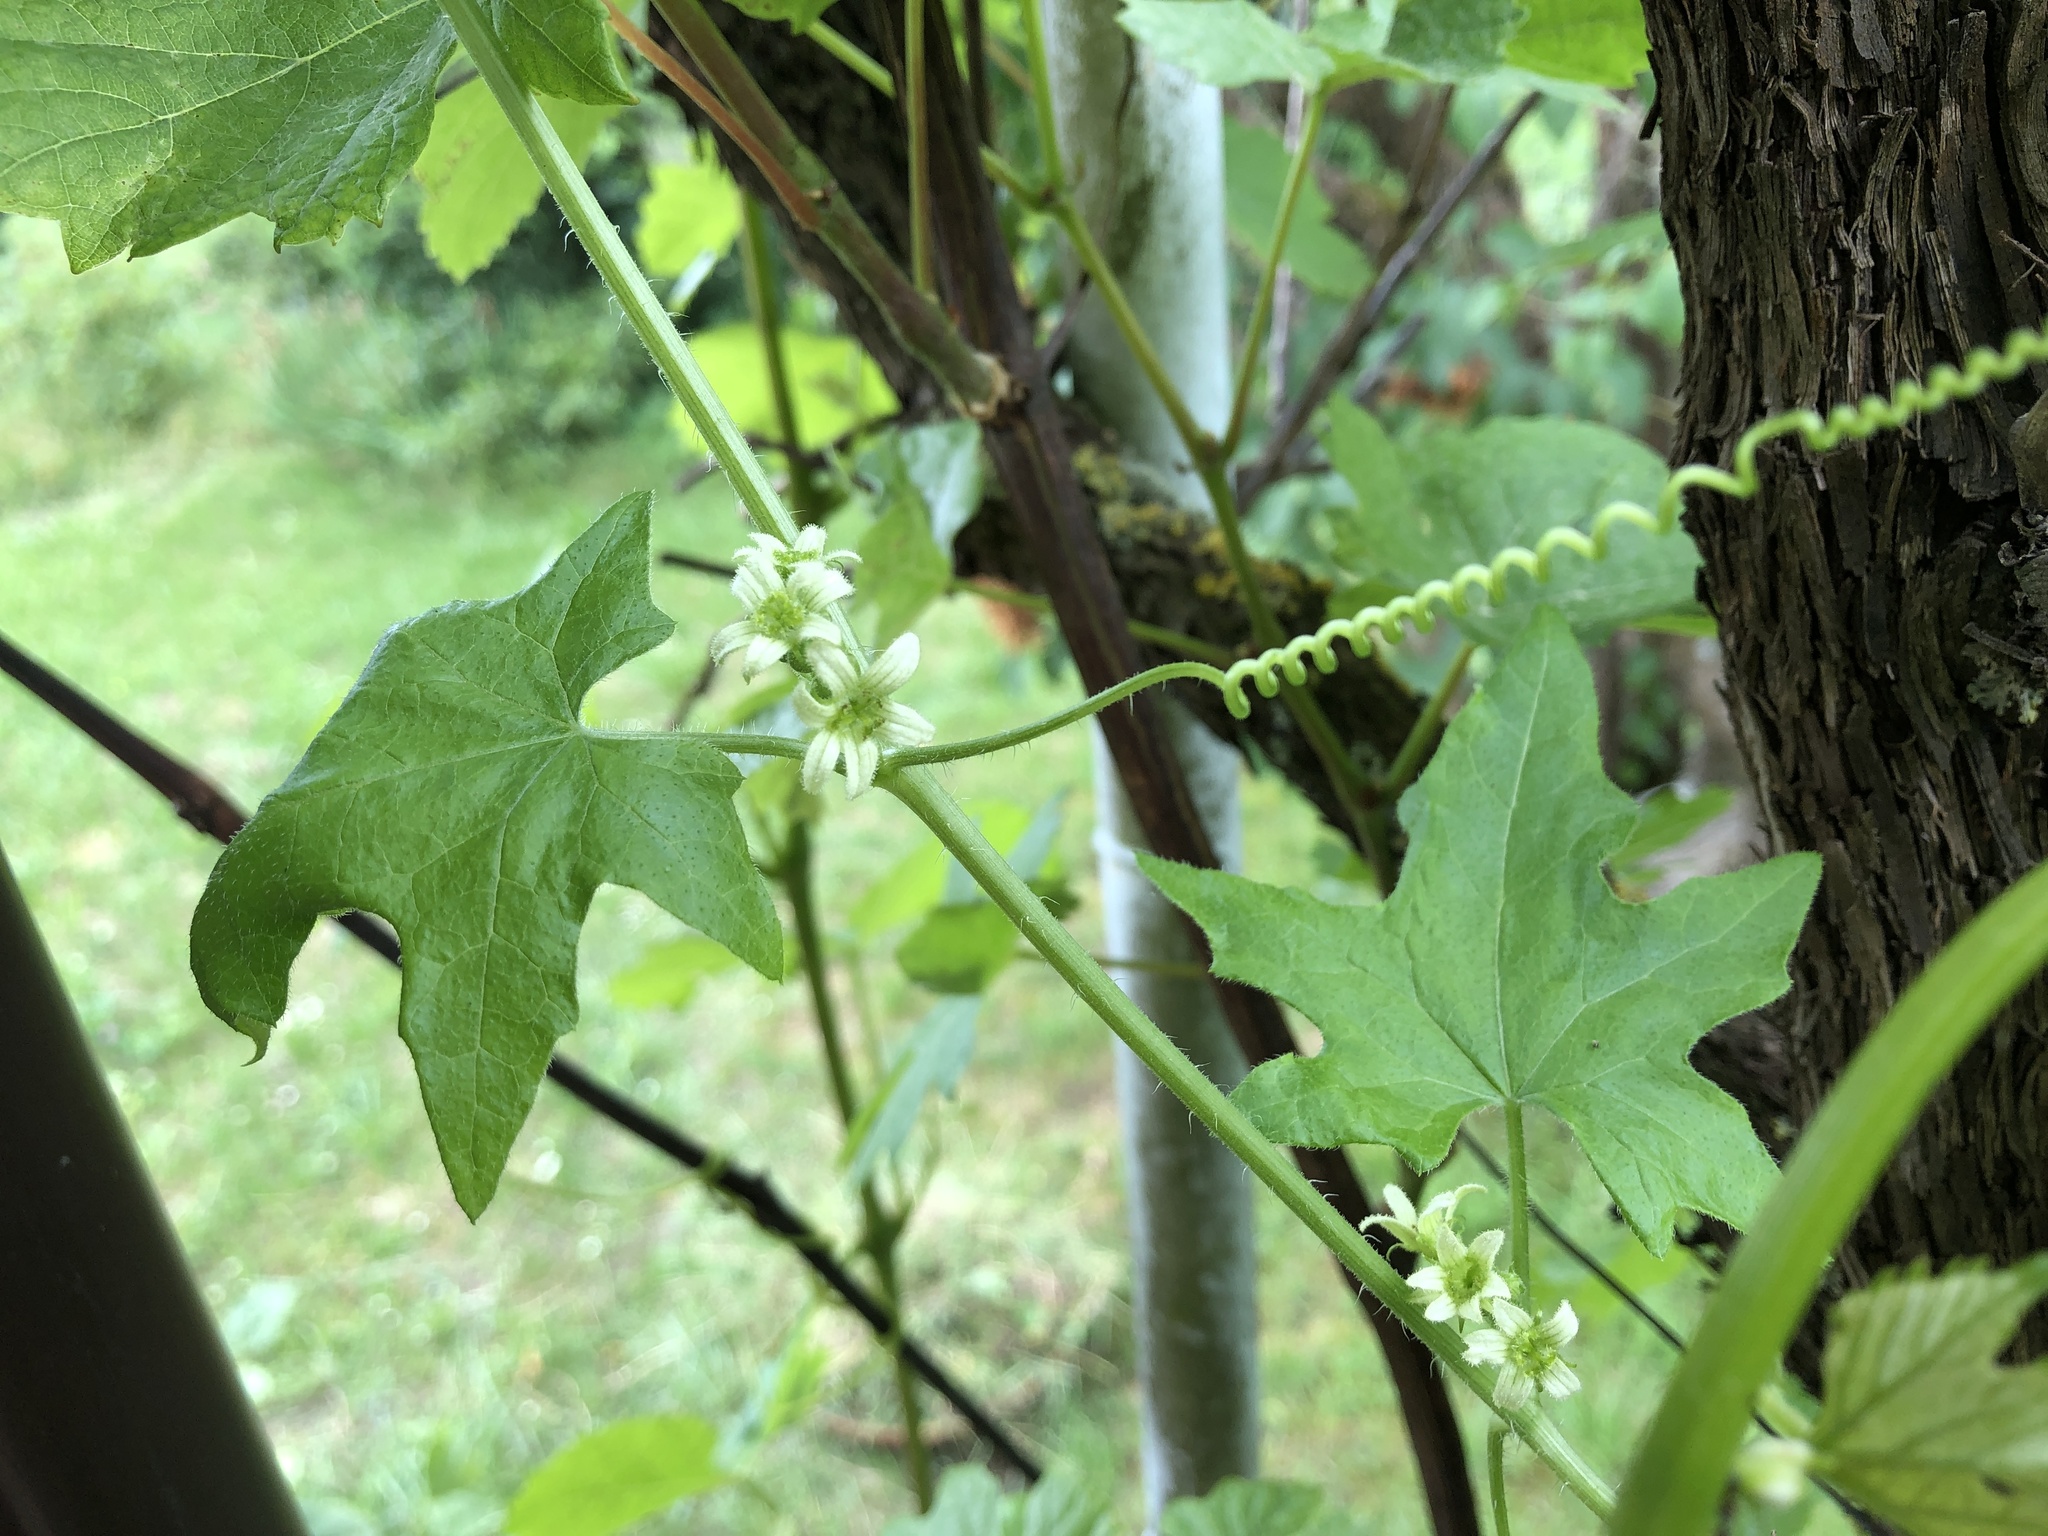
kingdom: Plantae
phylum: Tracheophyta
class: Magnoliopsida
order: Cucurbitales
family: Cucurbitaceae
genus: Bryonia
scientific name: Bryonia cretica
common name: Cretan bryony
